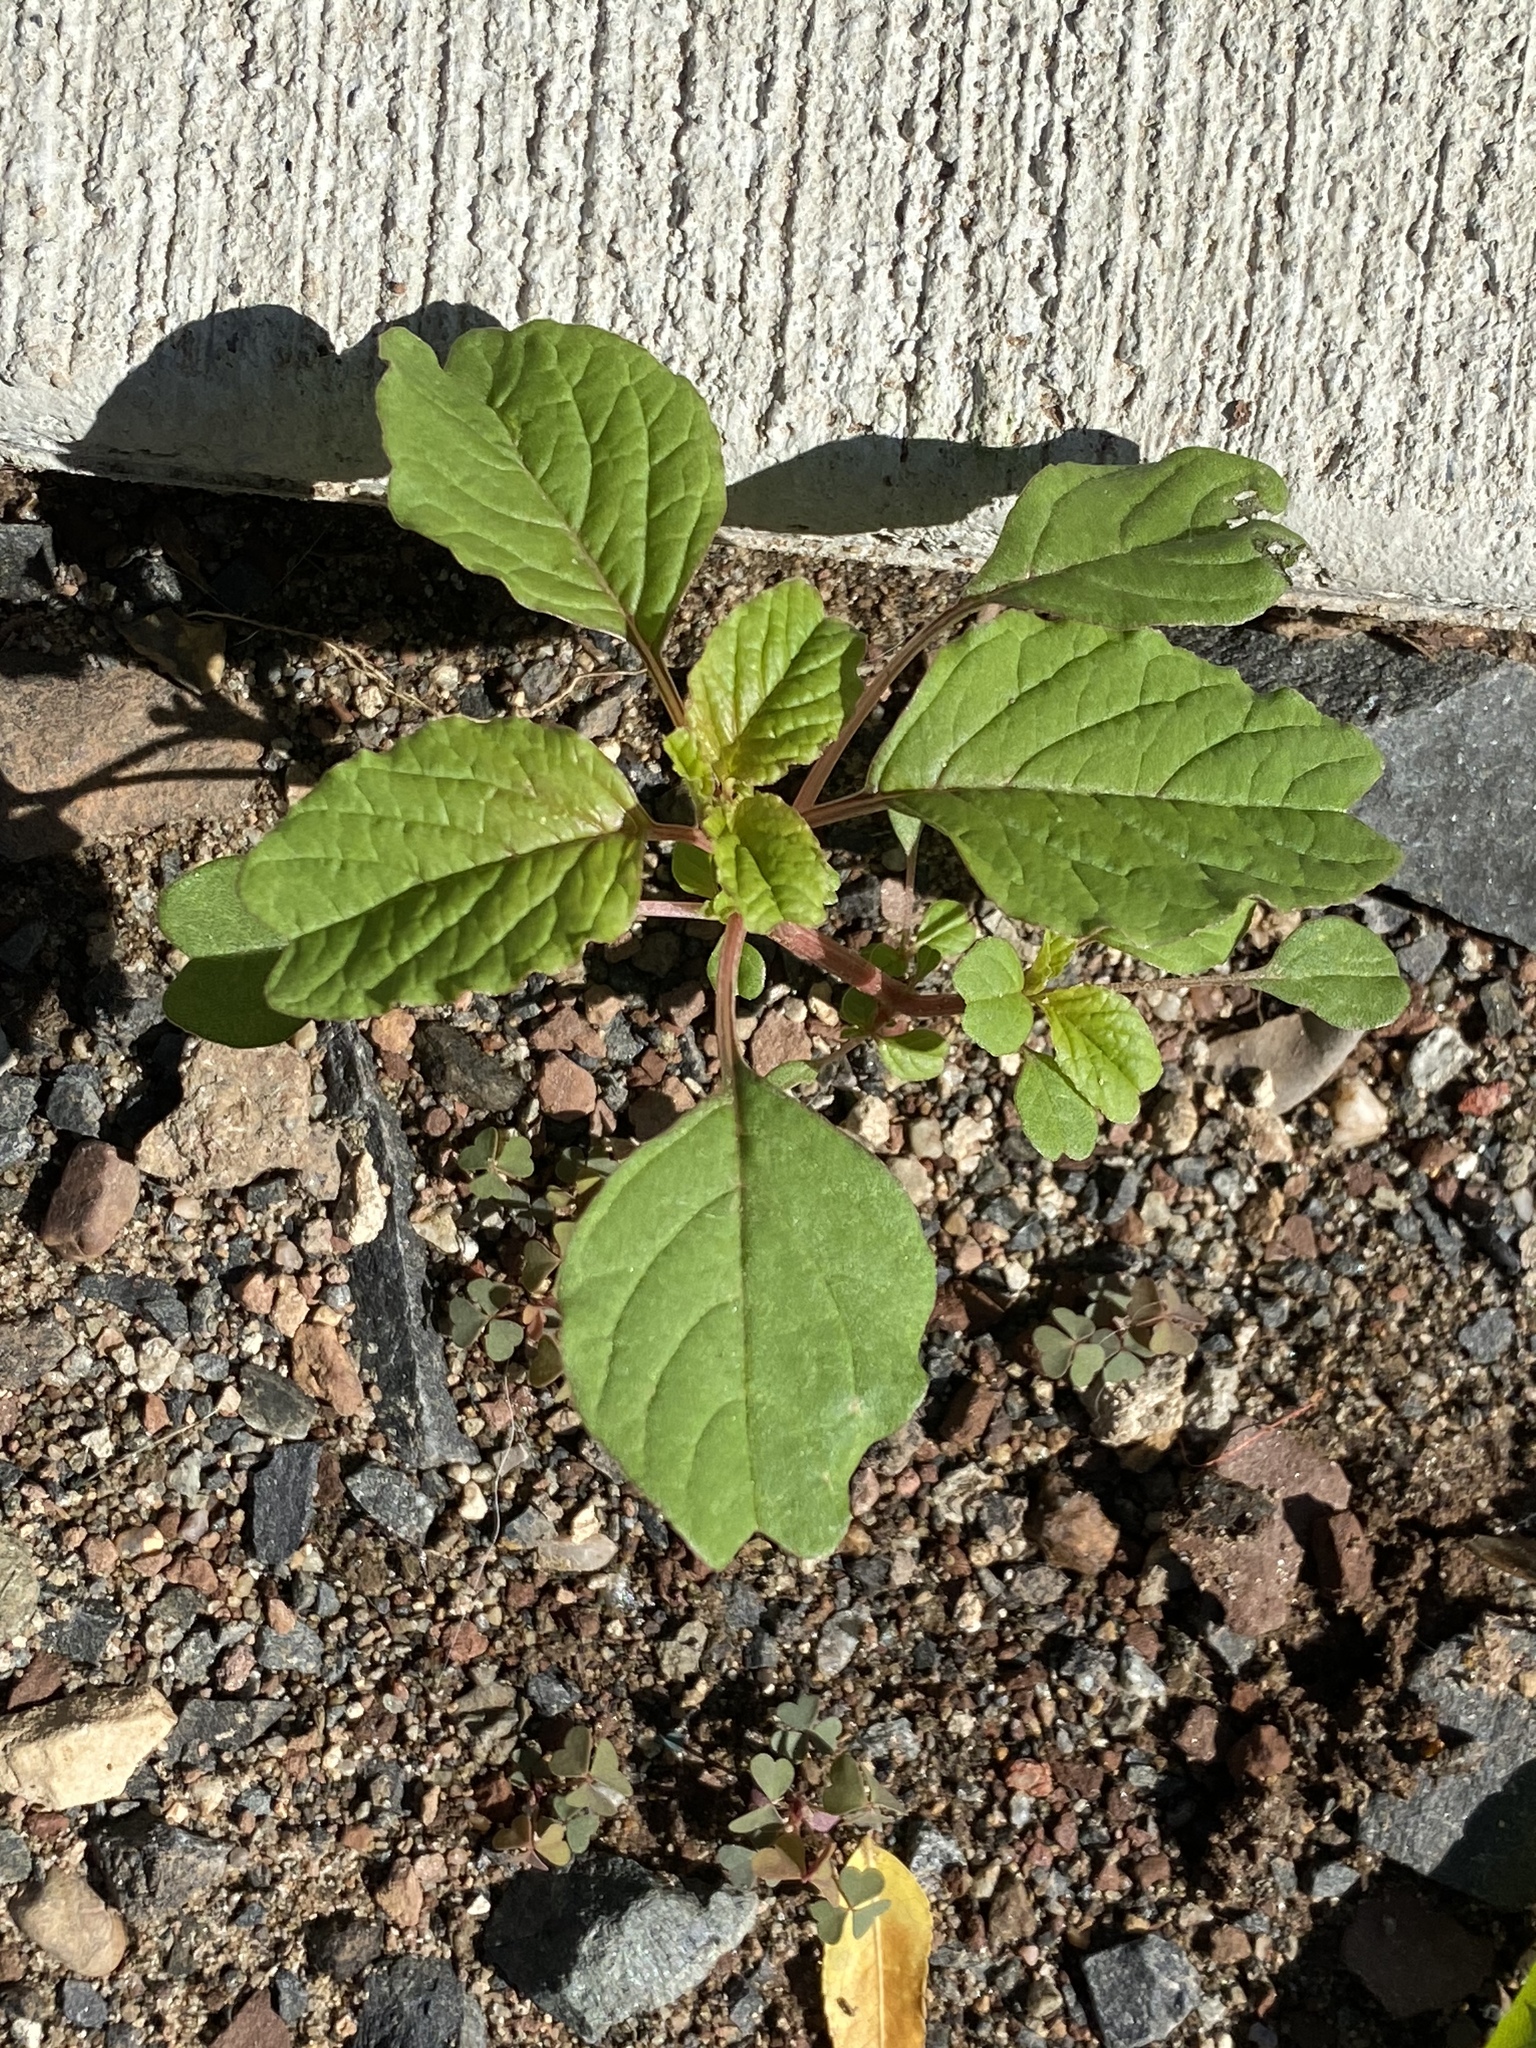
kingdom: Plantae
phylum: Tracheophyta
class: Magnoliopsida
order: Caryophyllales
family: Amaranthaceae
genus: Amaranthus
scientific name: Amaranthus blitum
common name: Purple amaranth
